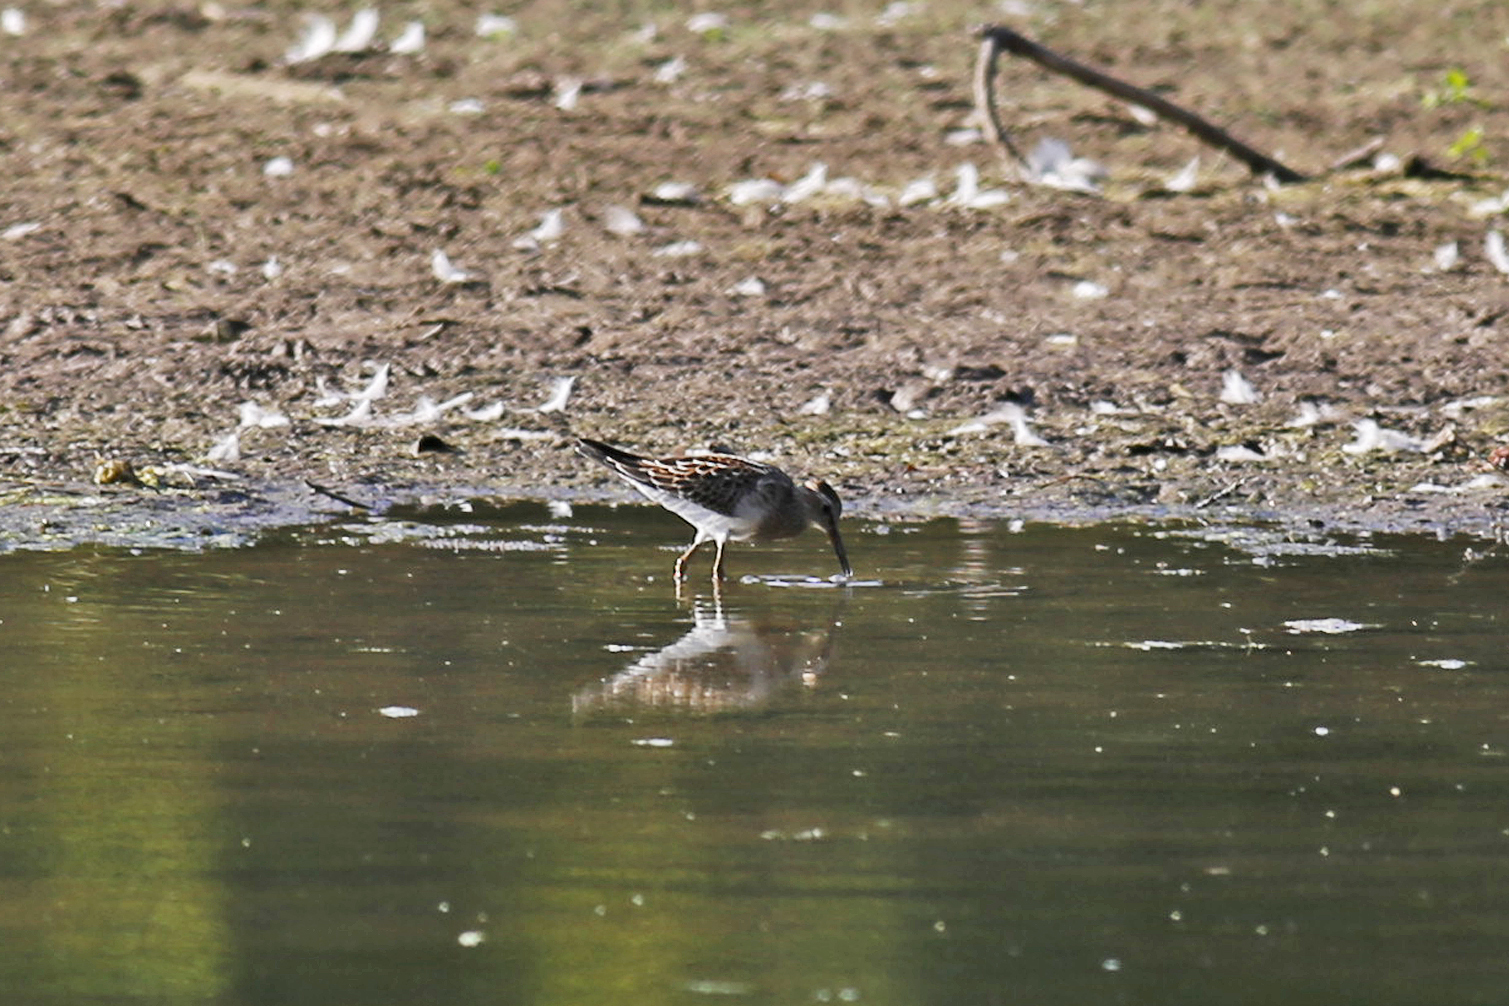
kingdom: Animalia
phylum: Chordata
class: Aves
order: Charadriiformes
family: Scolopacidae
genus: Calidris
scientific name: Calidris melanotos
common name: Pectoral sandpiper
